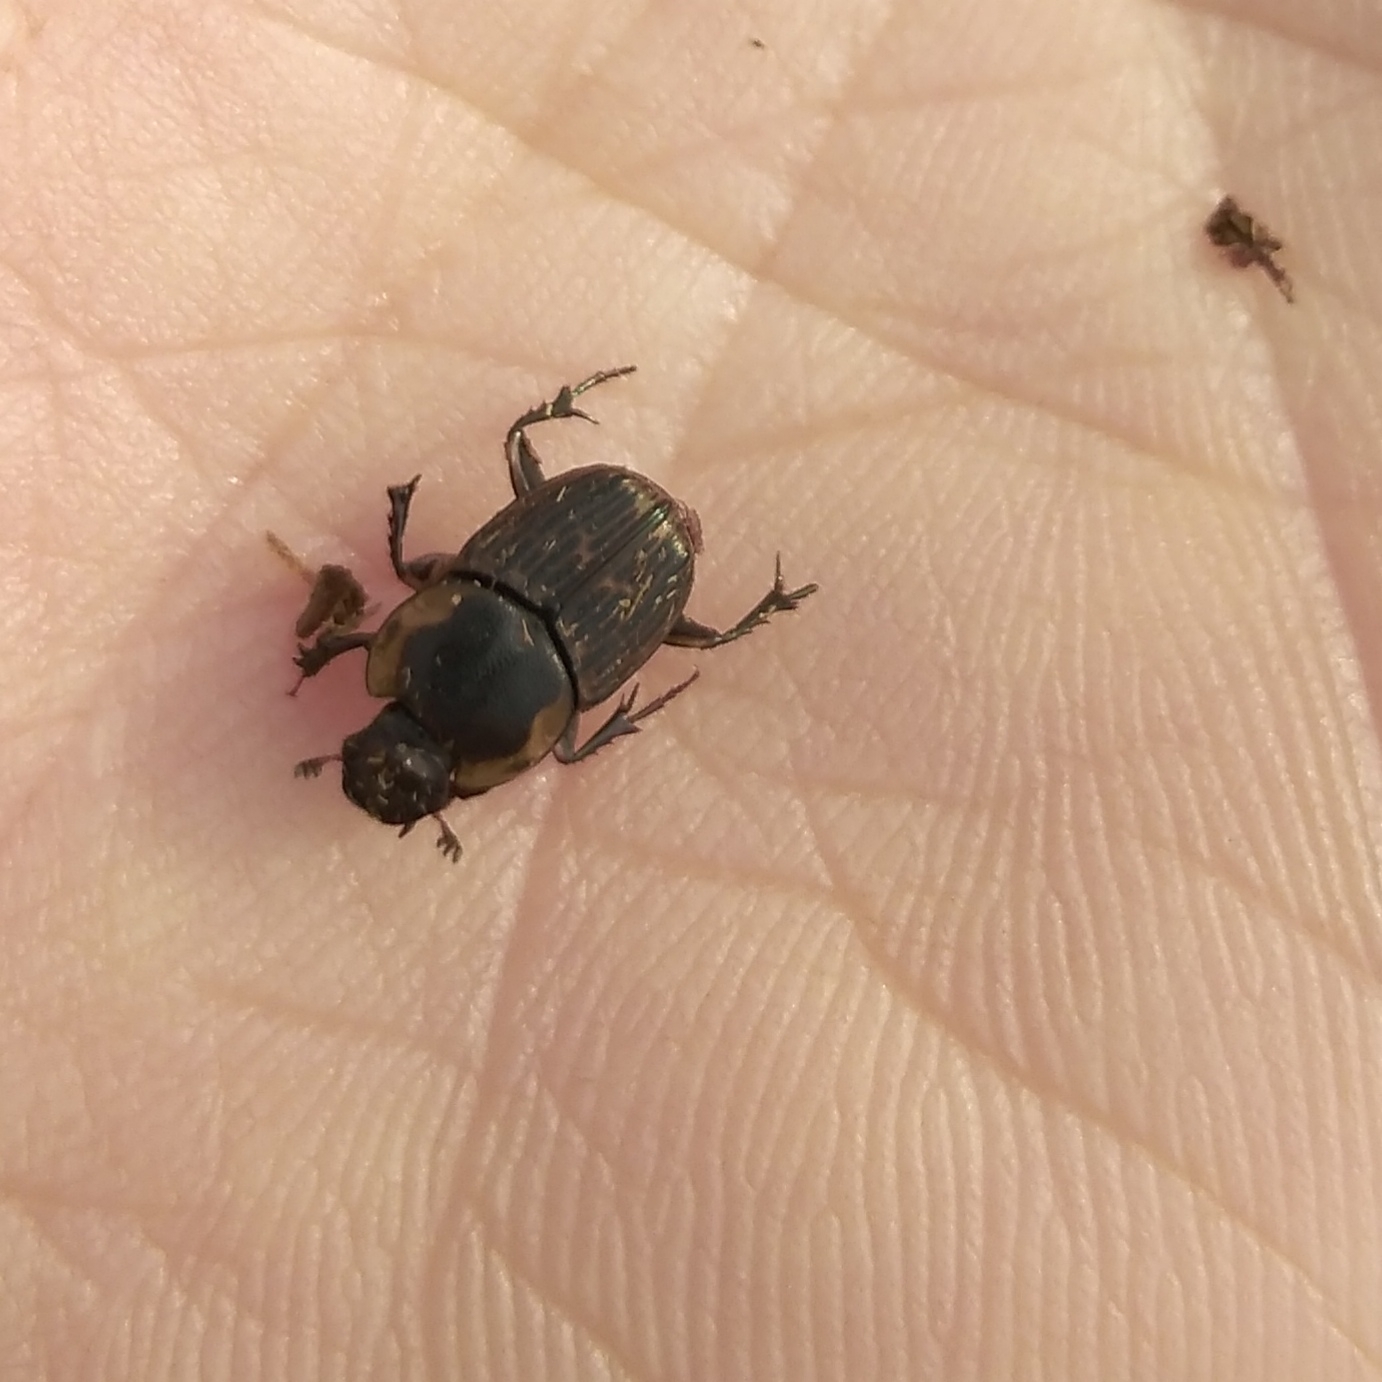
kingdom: Animalia
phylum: Arthropoda
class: Insecta
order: Coleoptera
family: Scarabaeidae
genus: Liatongus
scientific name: Liatongus militaris
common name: Yellow shouldered dung beetle
